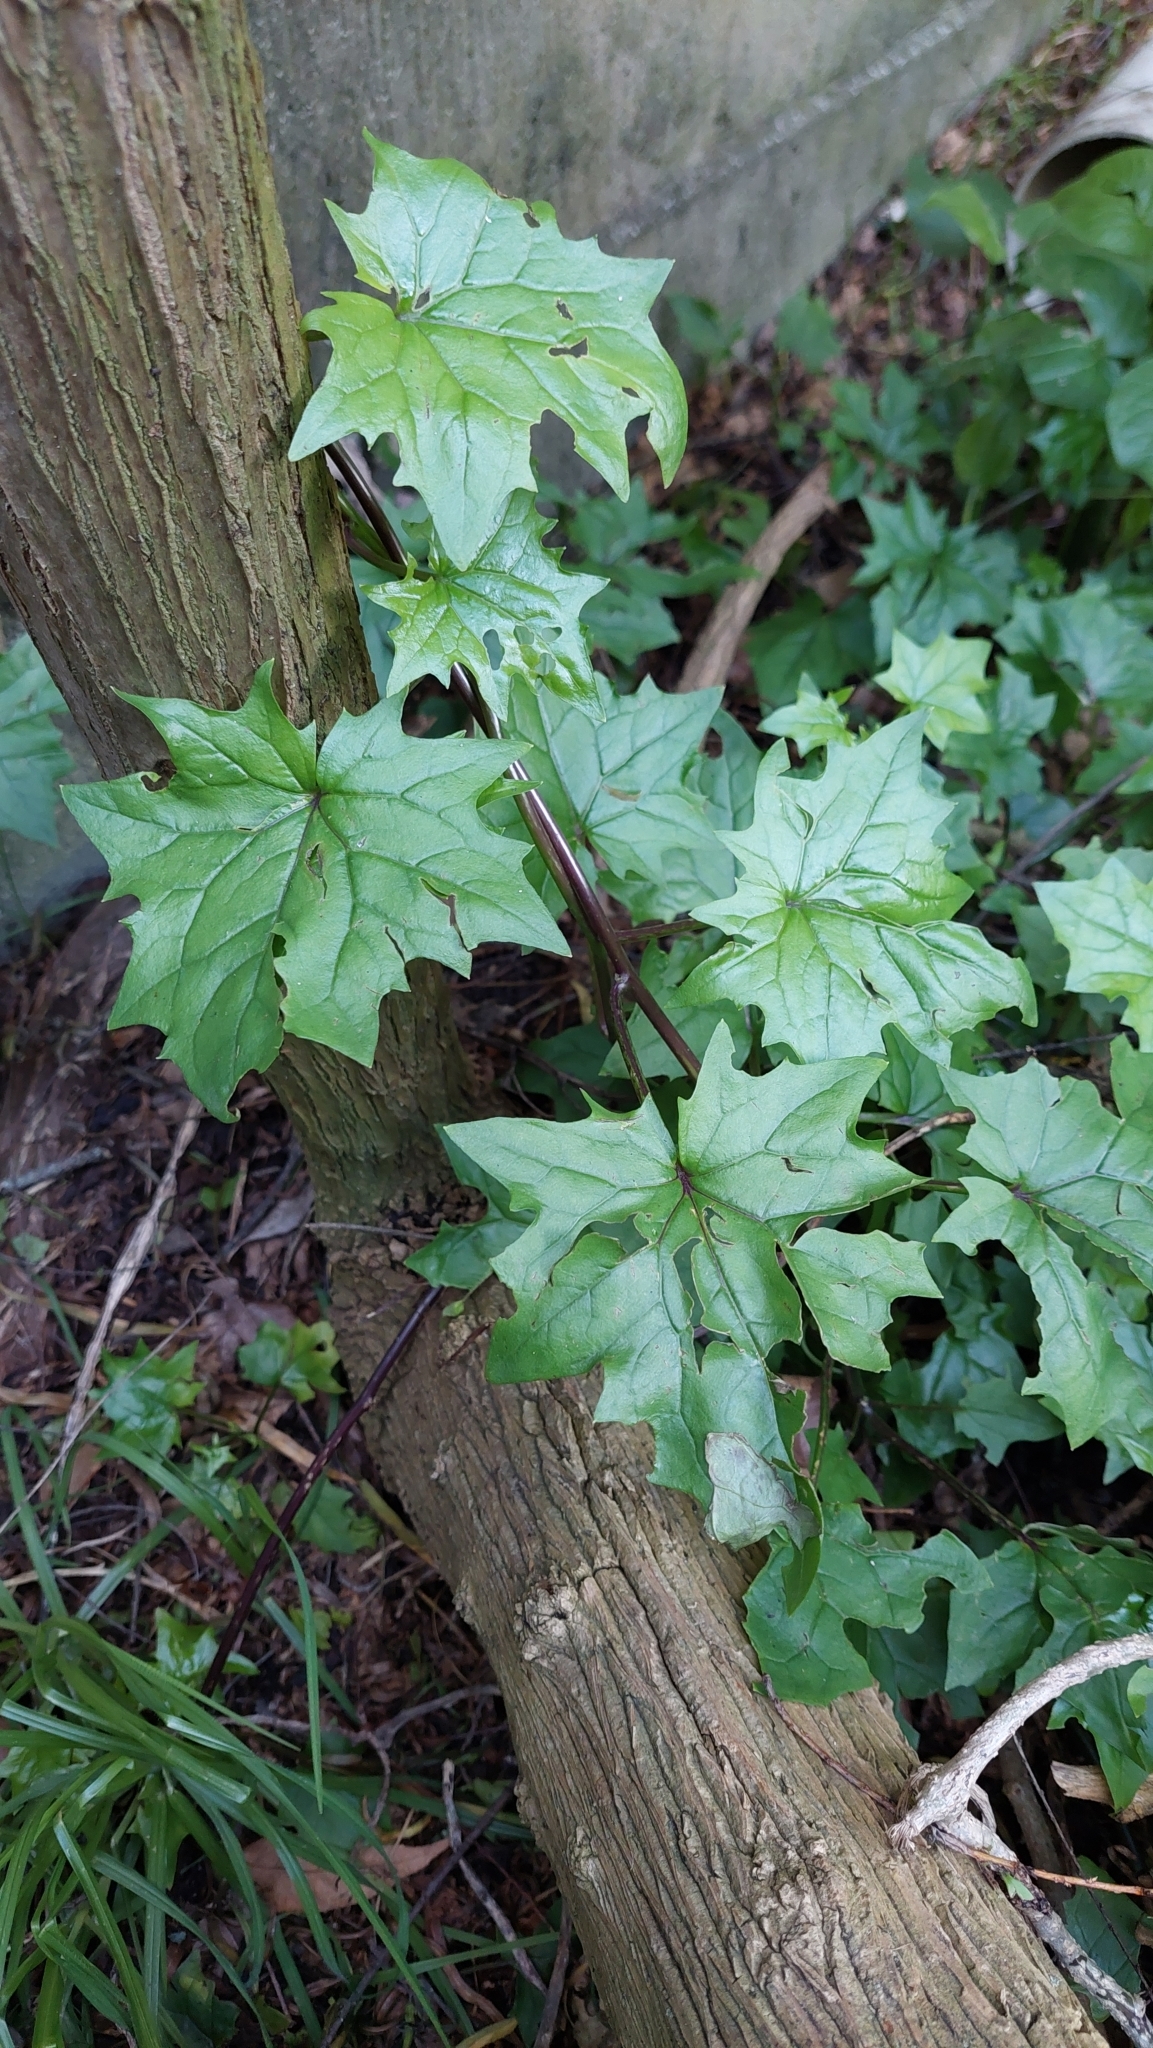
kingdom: Plantae
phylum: Tracheophyta
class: Magnoliopsida
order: Asterales
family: Asteraceae
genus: Senecio
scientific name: Senecio tamoides
